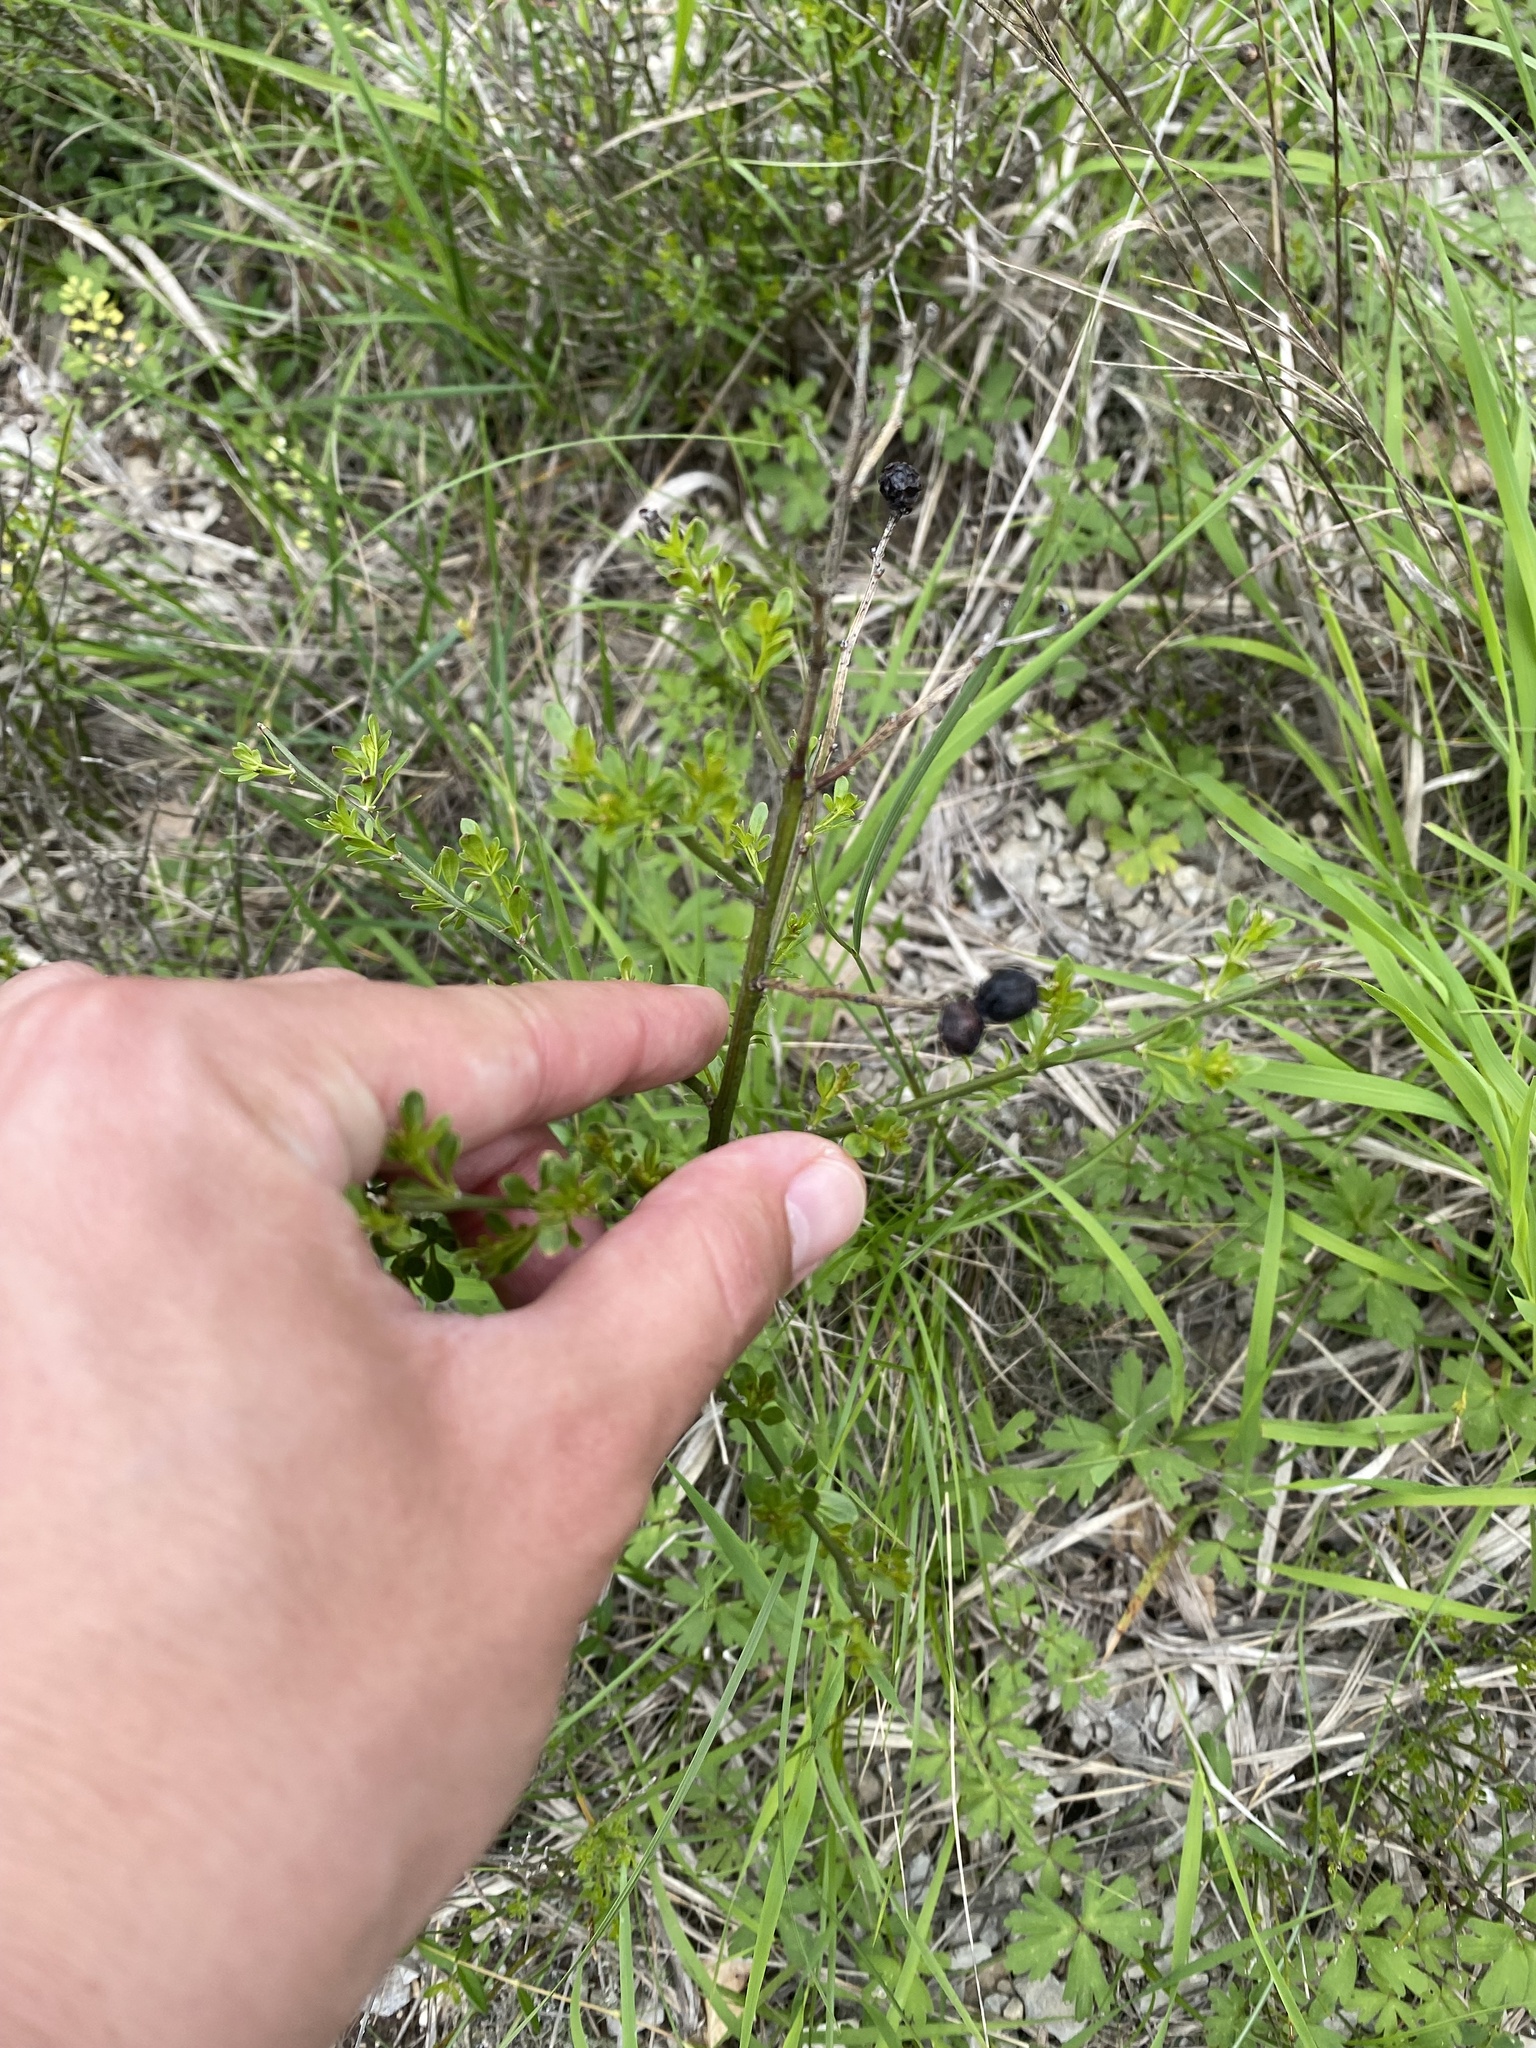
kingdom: Plantae
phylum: Tracheophyta
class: Magnoliopsida
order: Lamiales
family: Oleaceae
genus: Chrysojasminum
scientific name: Chrysojasminum fruticans
